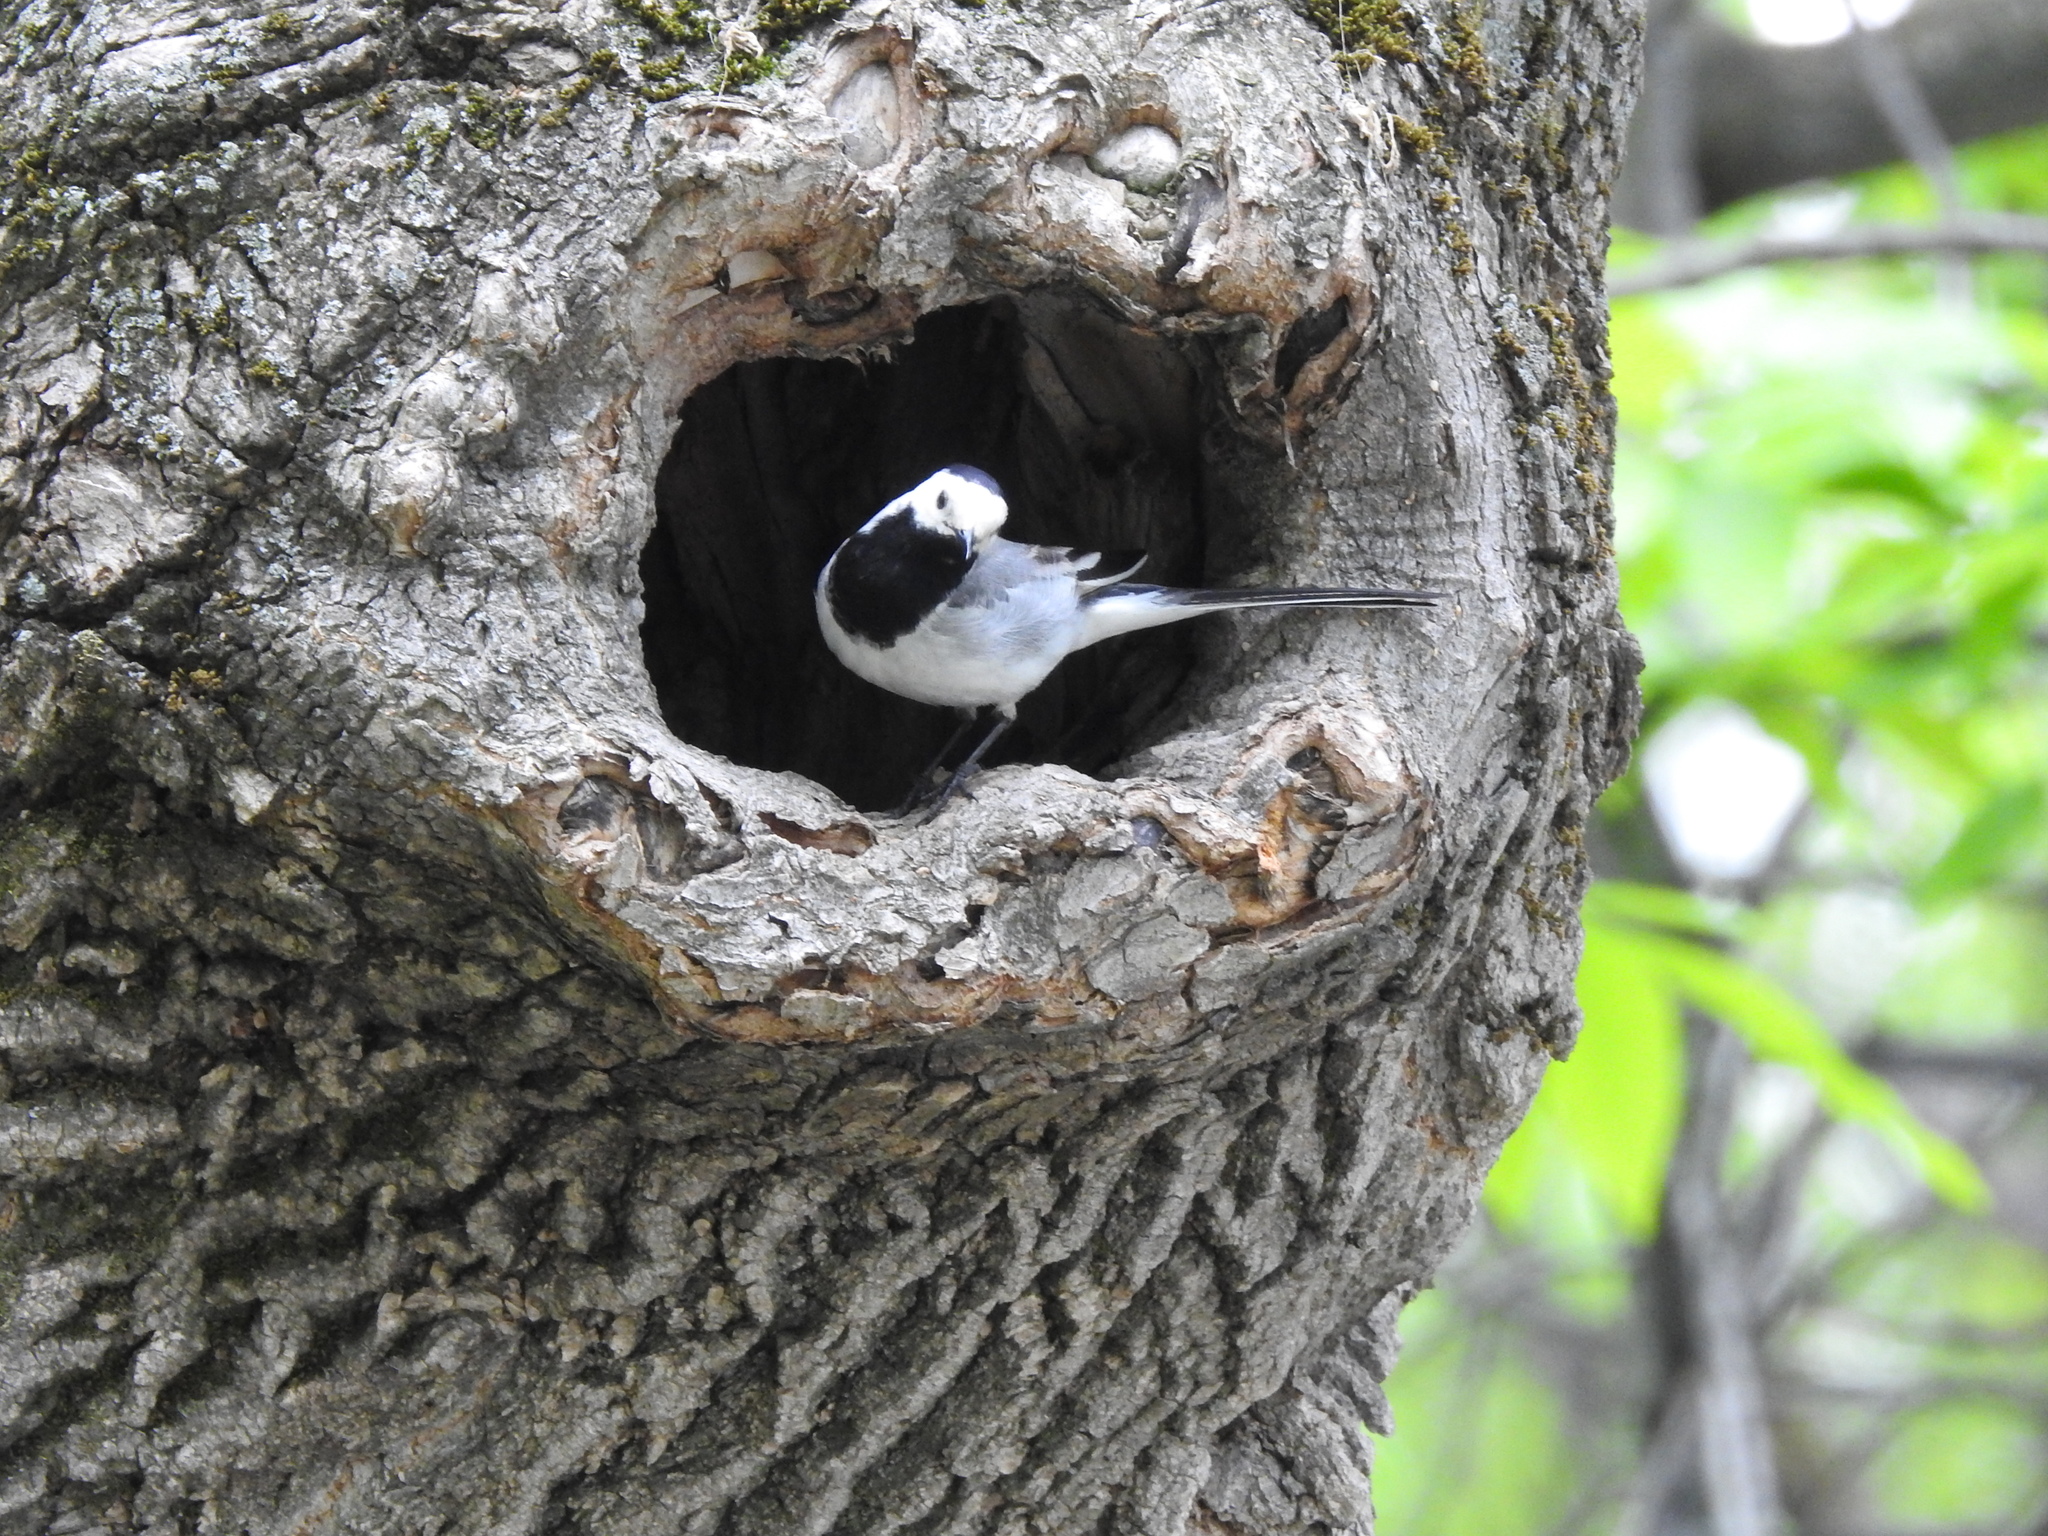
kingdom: Animalia
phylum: Chordata
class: Aves
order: Passeriformes
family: Motacillidae
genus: Motacilla
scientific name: Motacilla alba
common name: White wagtail
